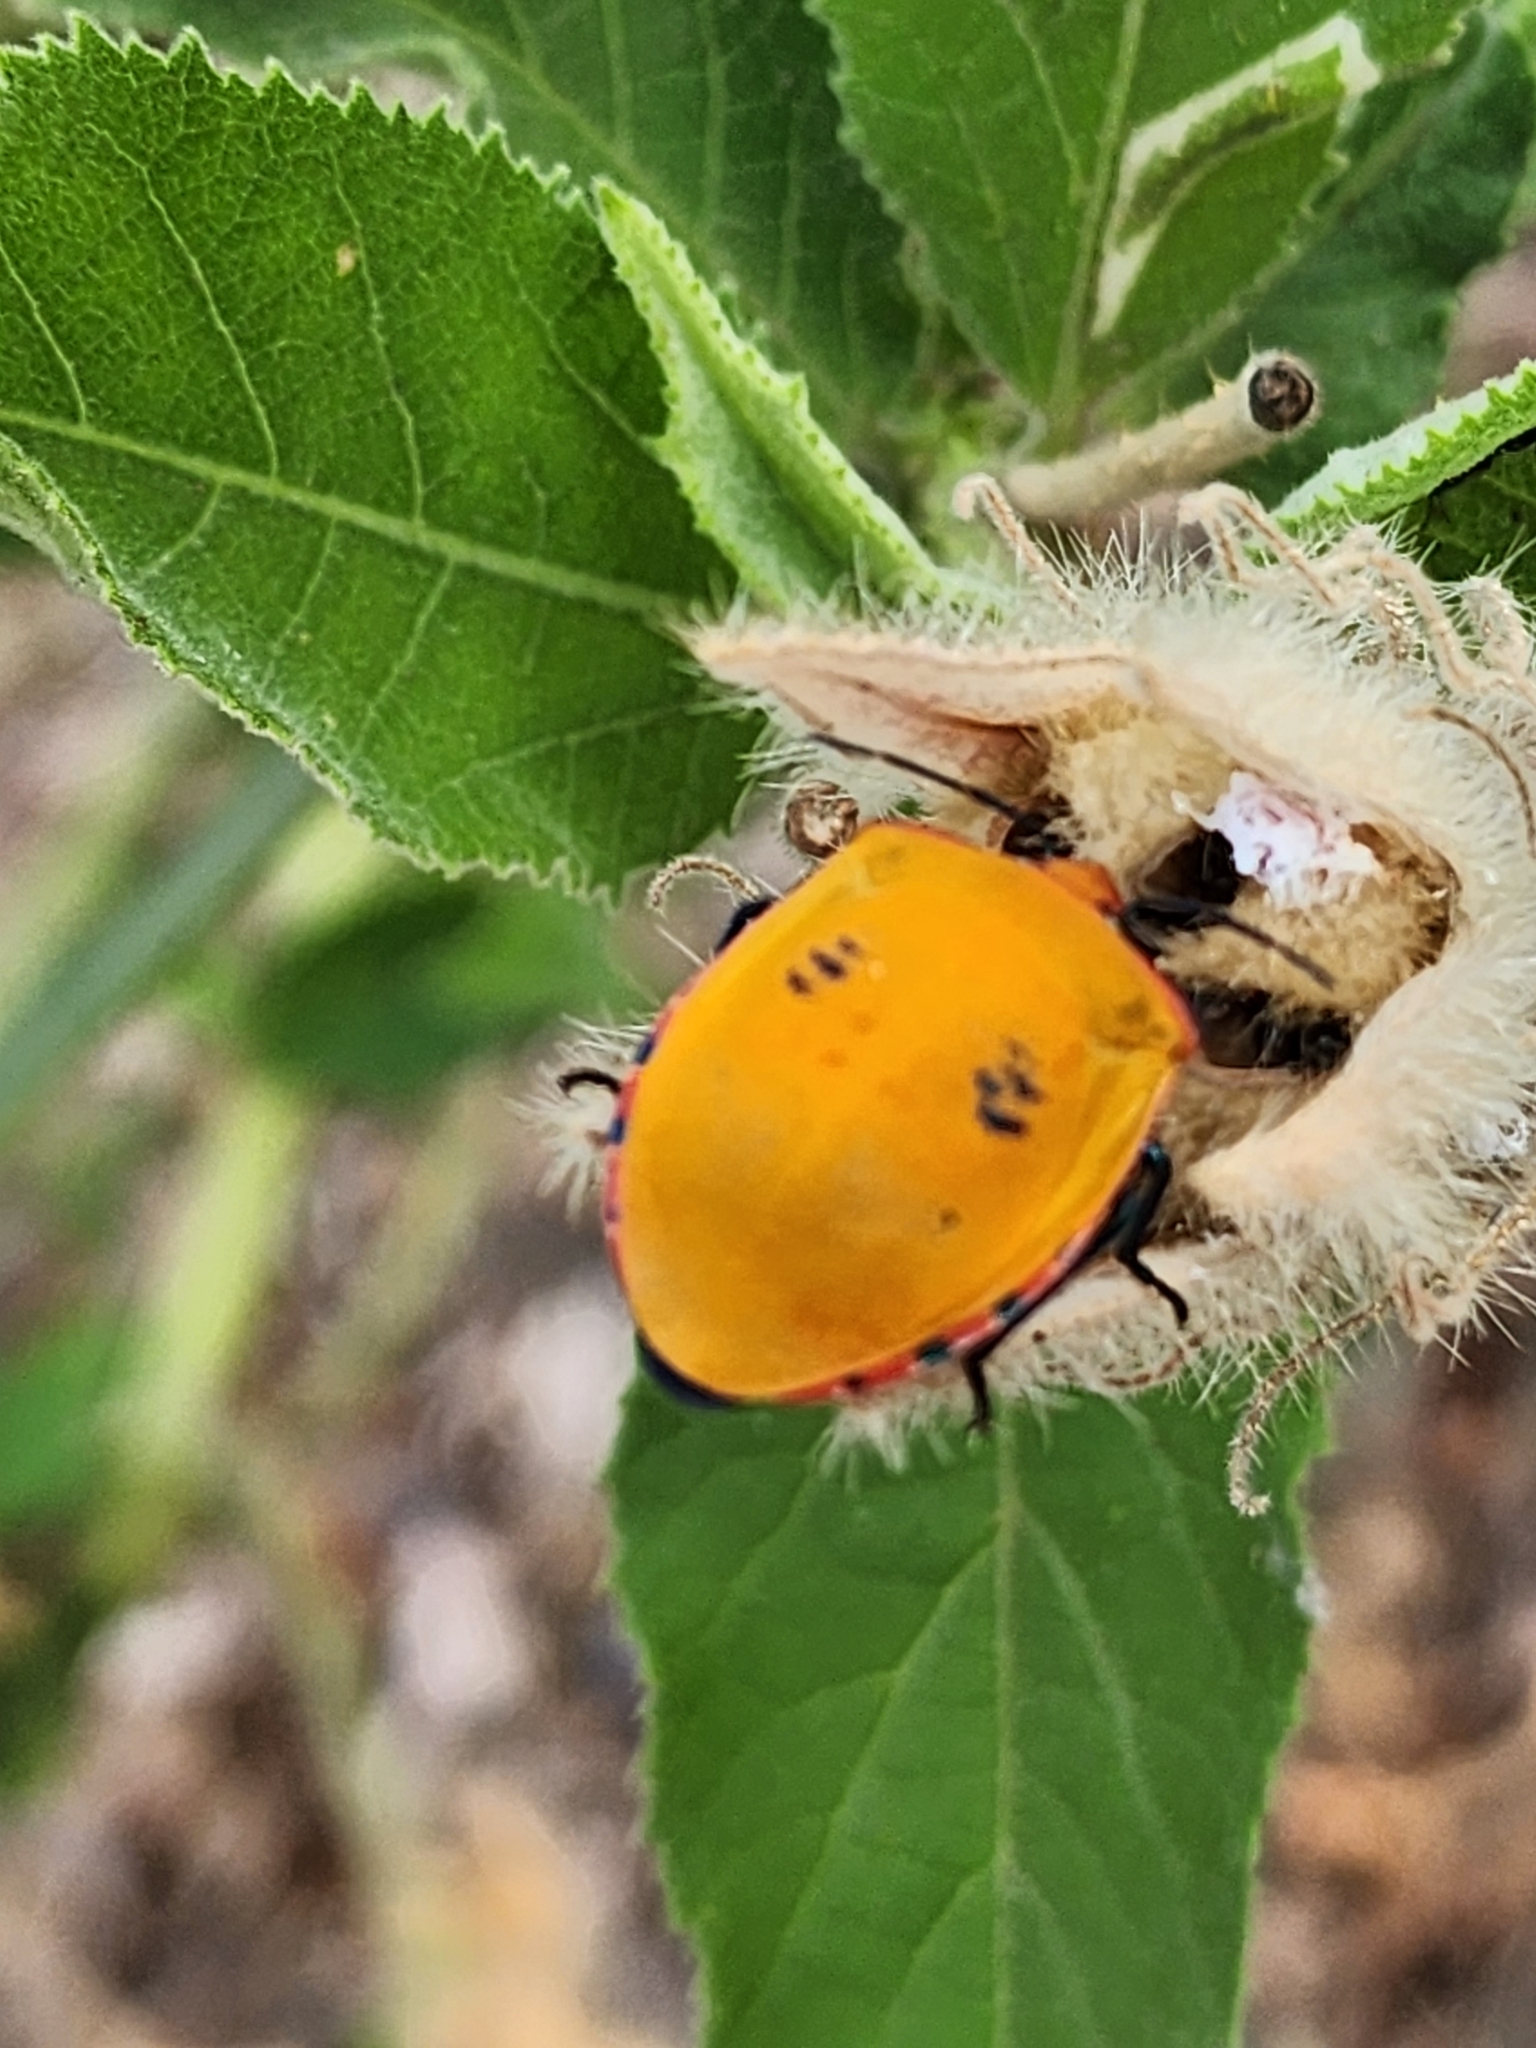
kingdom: Animalia
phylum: Arthropoda
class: Insecta
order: Hemiptera
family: Scutelleridae
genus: Tectocoris
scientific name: Tectocoris diophthalmus
